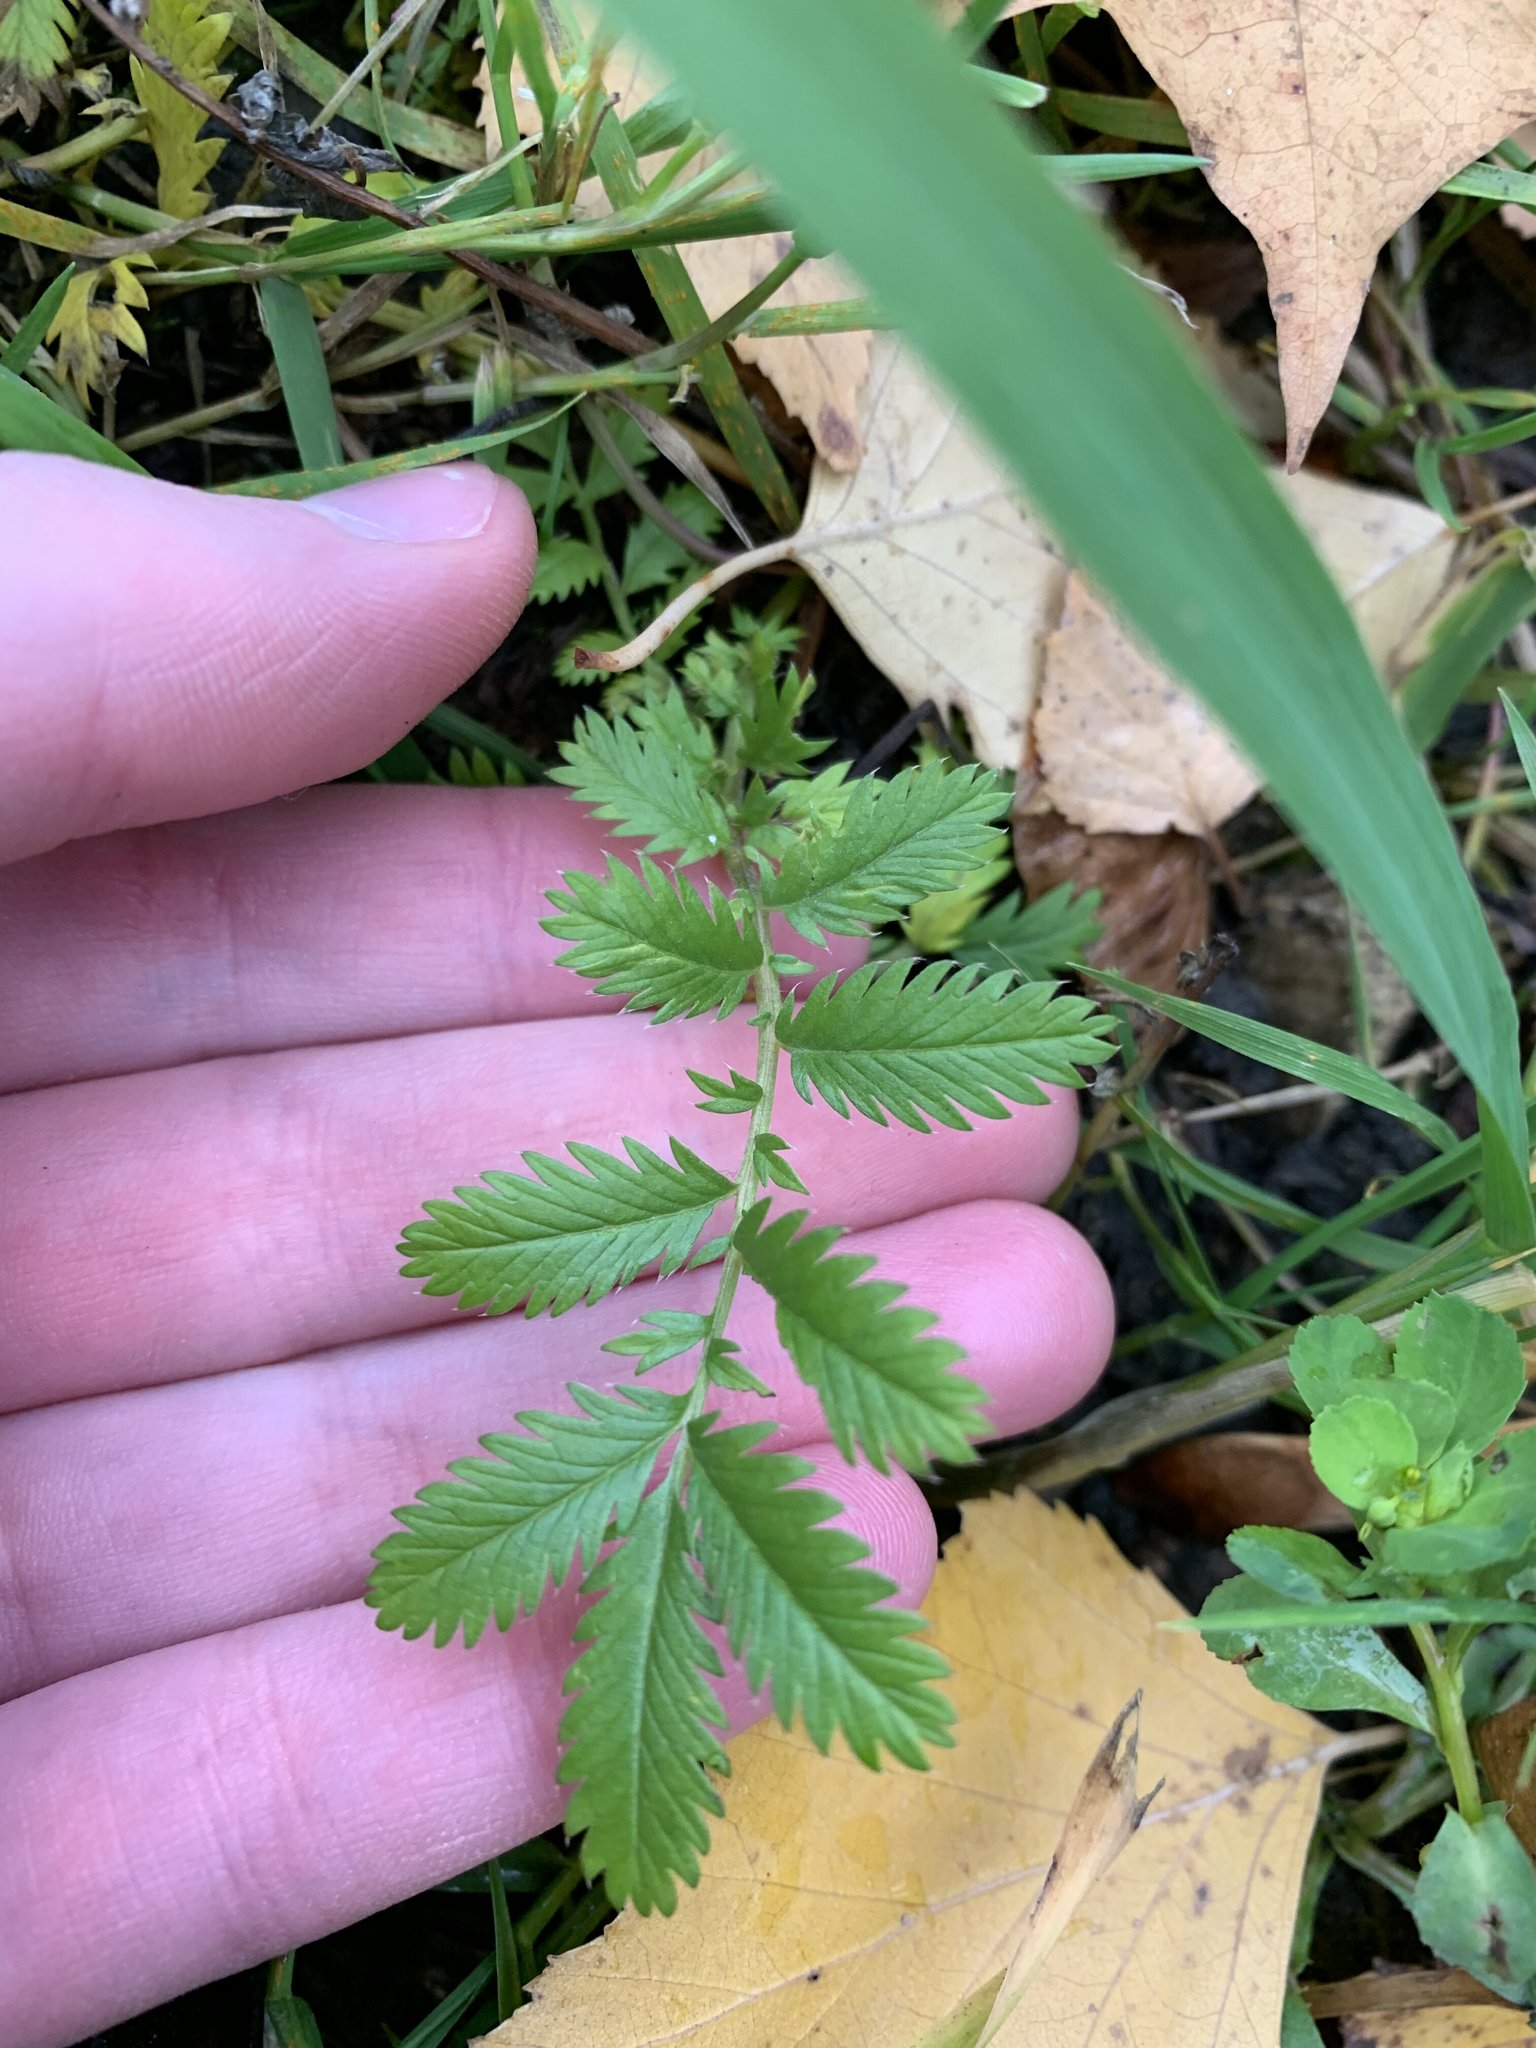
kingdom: Plantae
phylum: Tracheophyta
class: Magnoliopsida
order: Rosales
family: Rosaceae
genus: Argentina
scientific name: Argentina anserina
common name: Common silverweed
